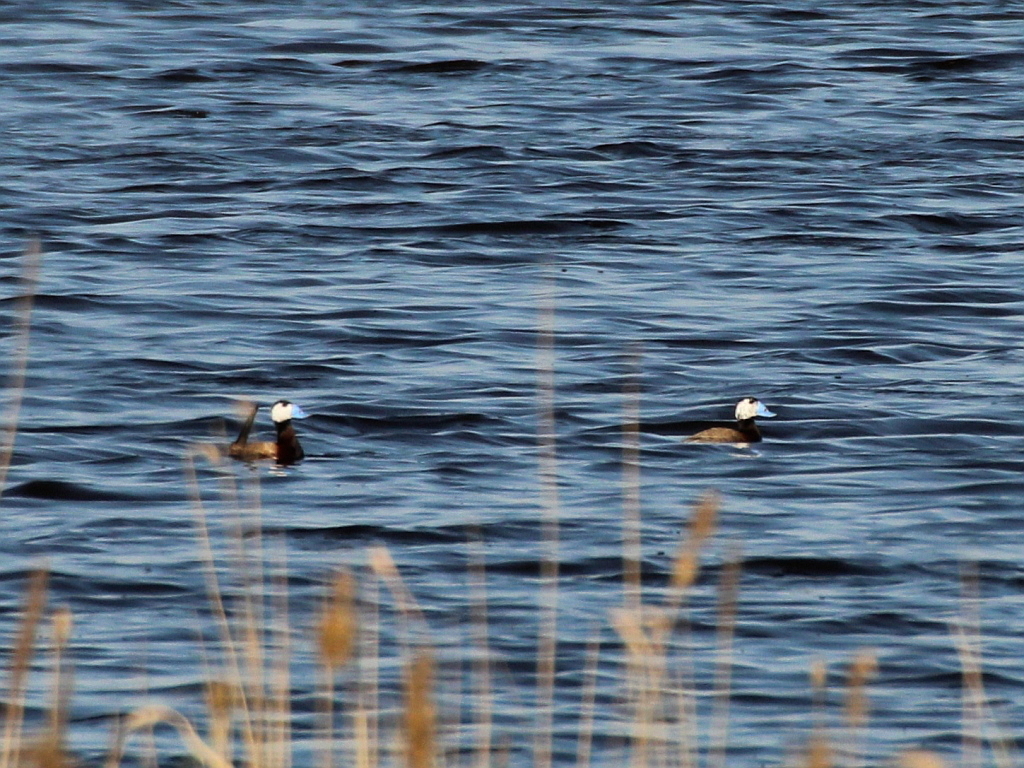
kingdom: Animalia
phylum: Chordata
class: Aves
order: Anseriformes
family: Anatidae
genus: Oxyura
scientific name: Oxyura leucocephala
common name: White-headed duck
